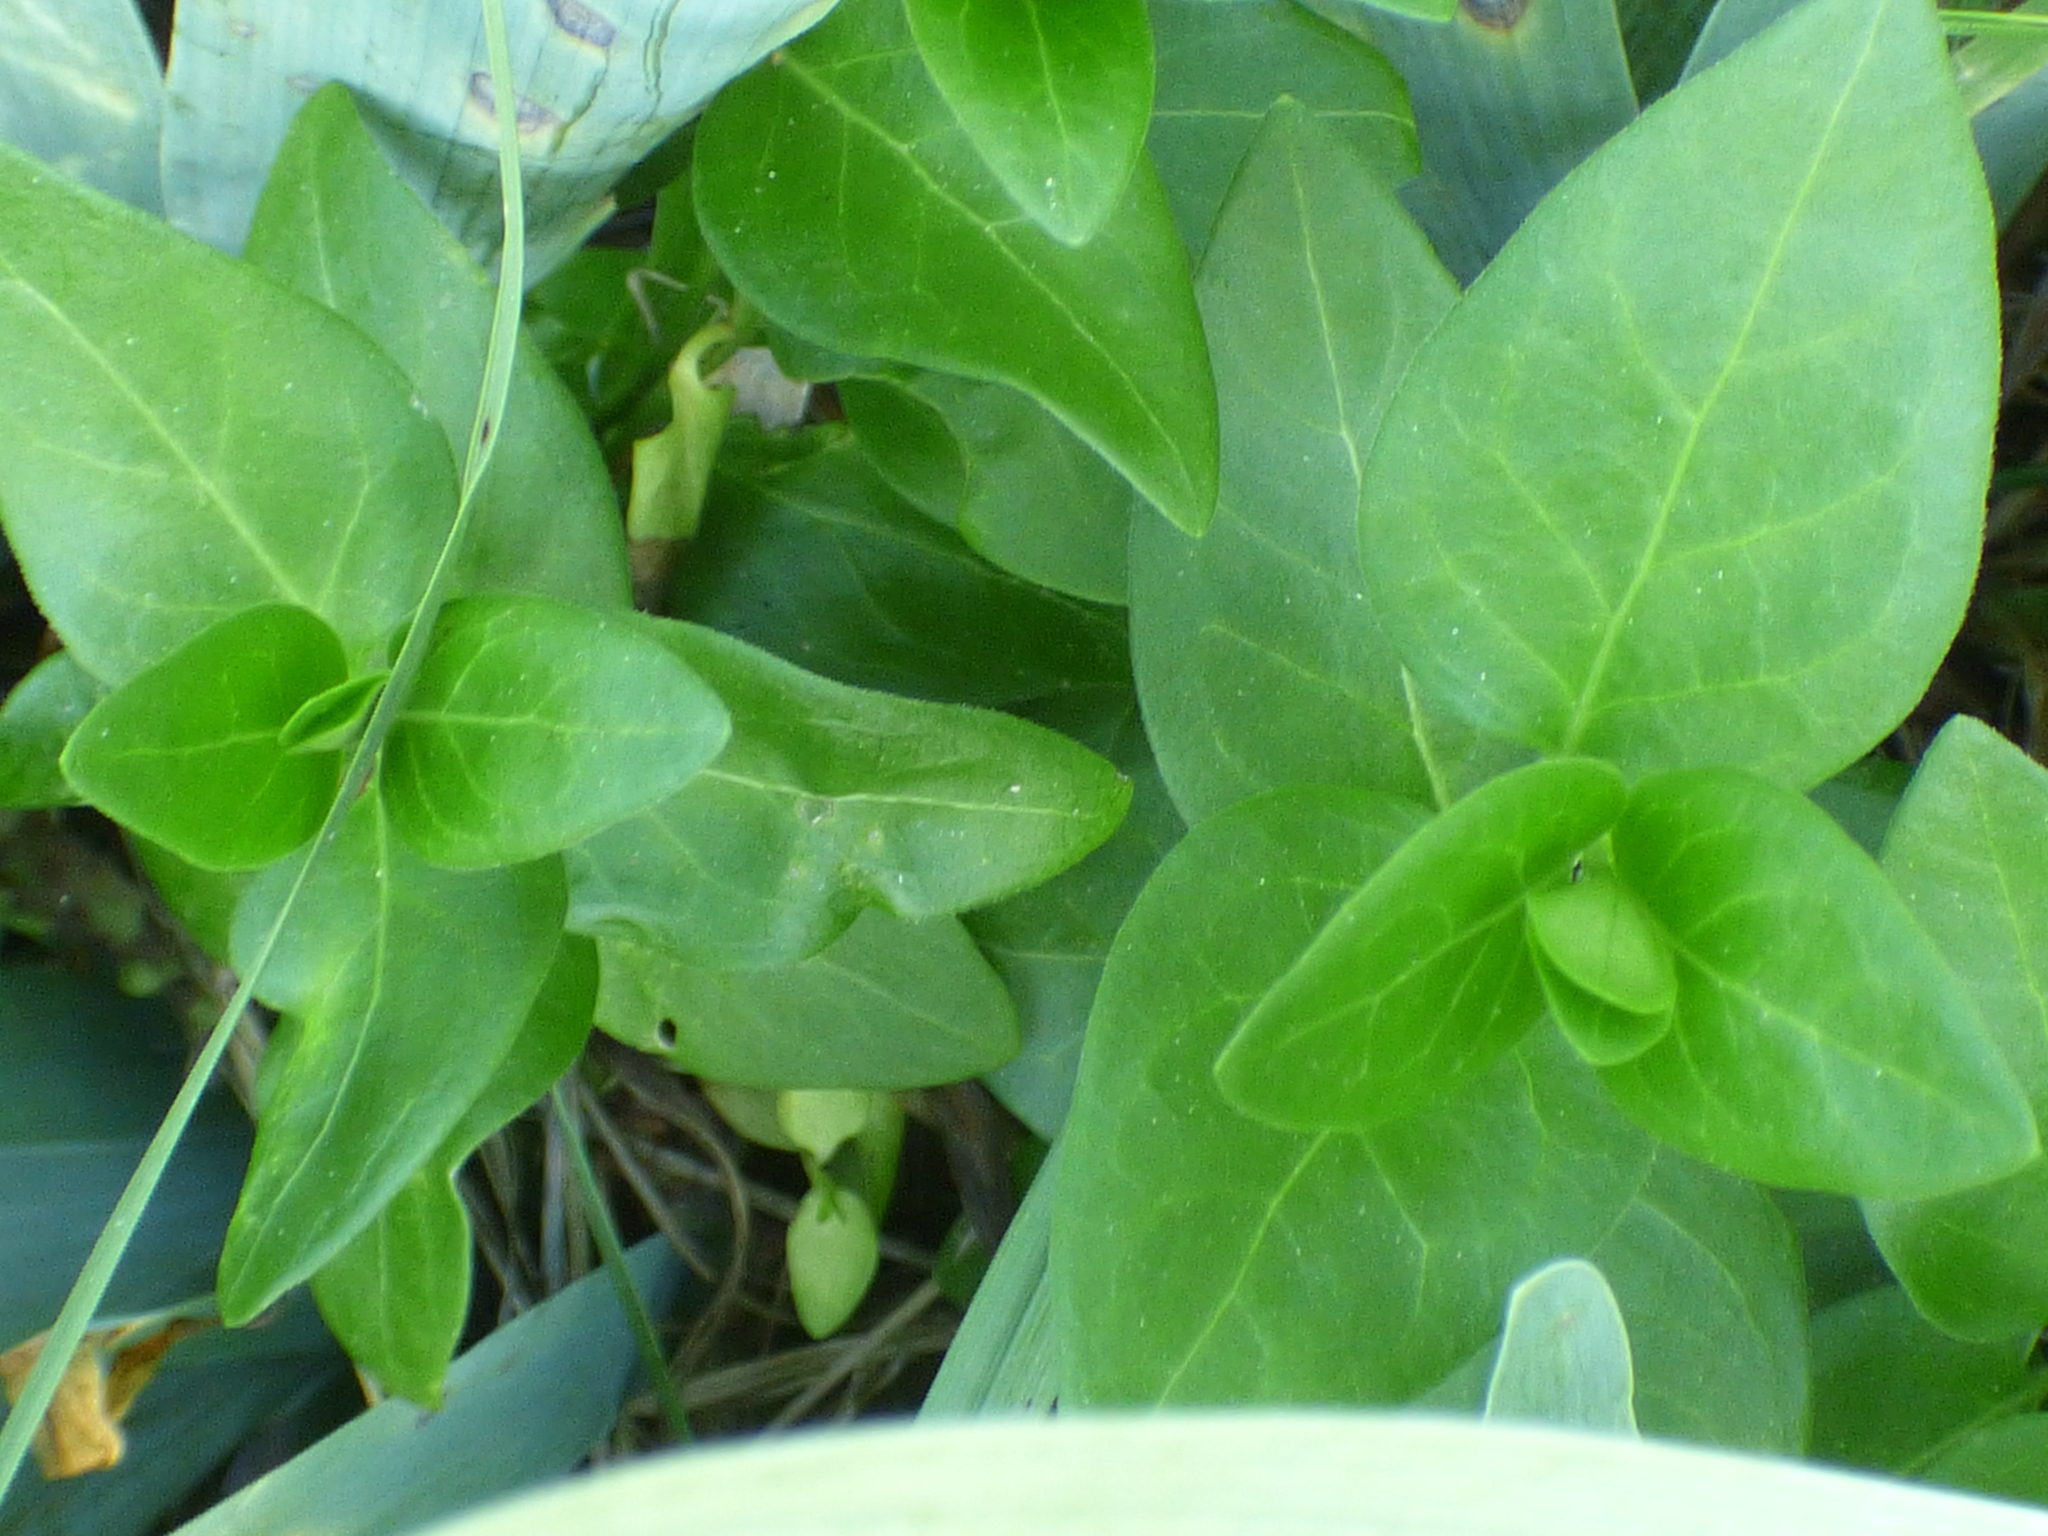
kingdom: Plantae
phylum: Tracheophyta
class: Magnoliopsida
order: Gentianales
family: Apocynaceae
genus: Vinca
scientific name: Vinca major
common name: Greater periwinkle
